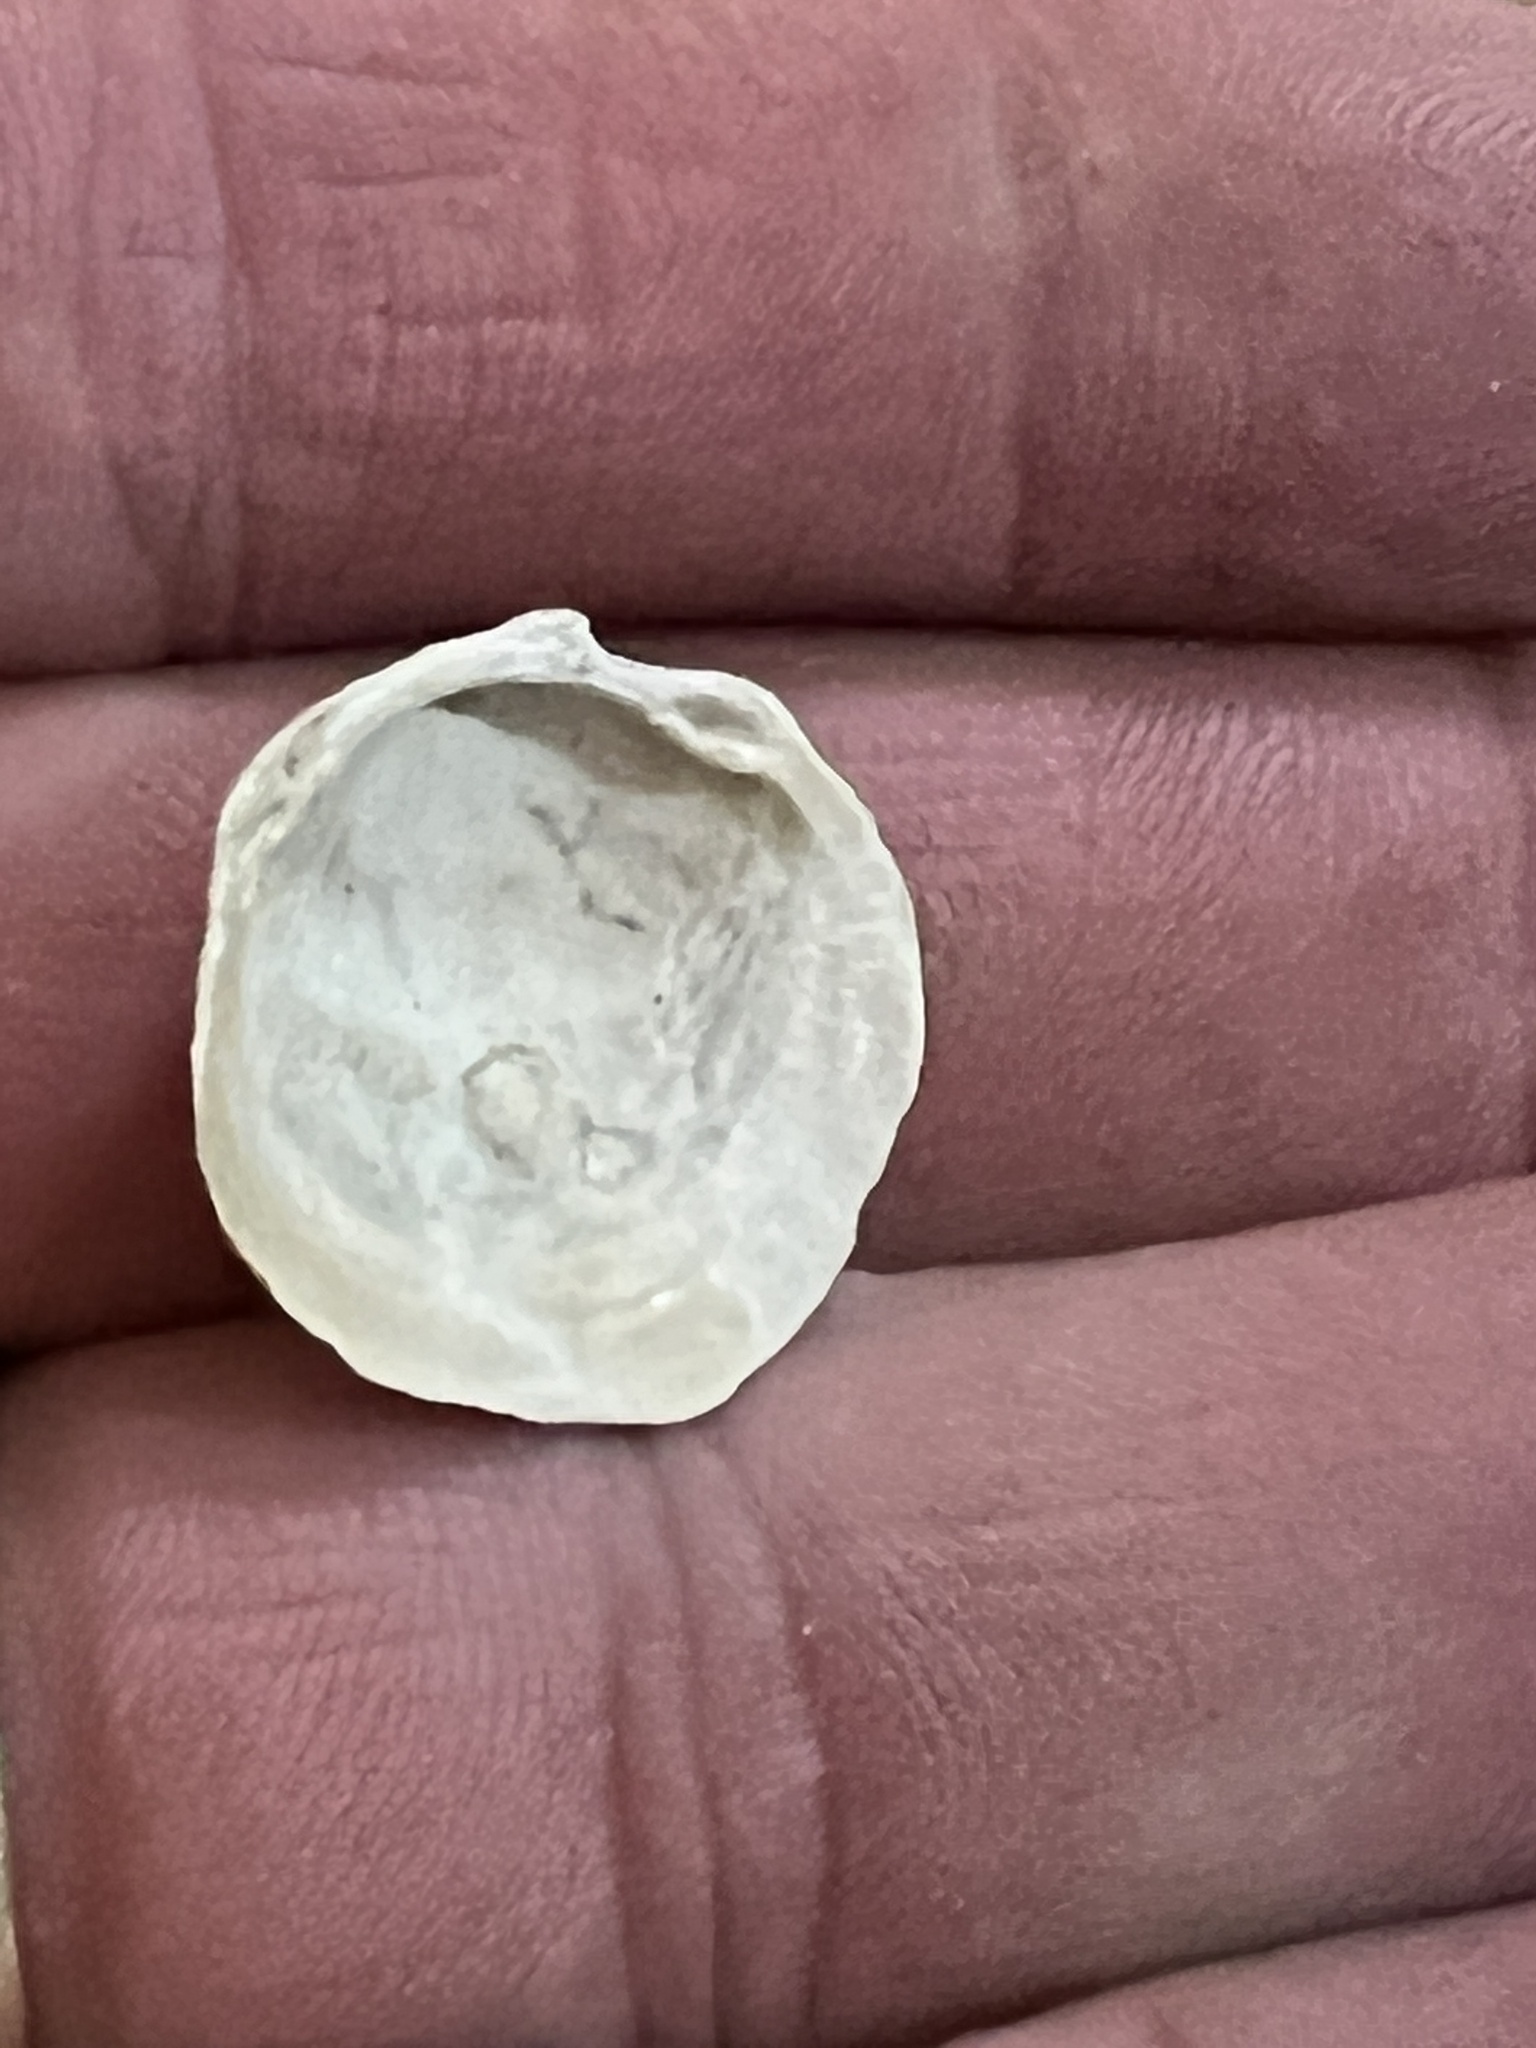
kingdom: Animalia
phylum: Mollusca
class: Bivalvia
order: Lucinida
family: Lucinidae
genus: Phacoides
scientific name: Phacoides pectinatus
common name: Thick lucine
